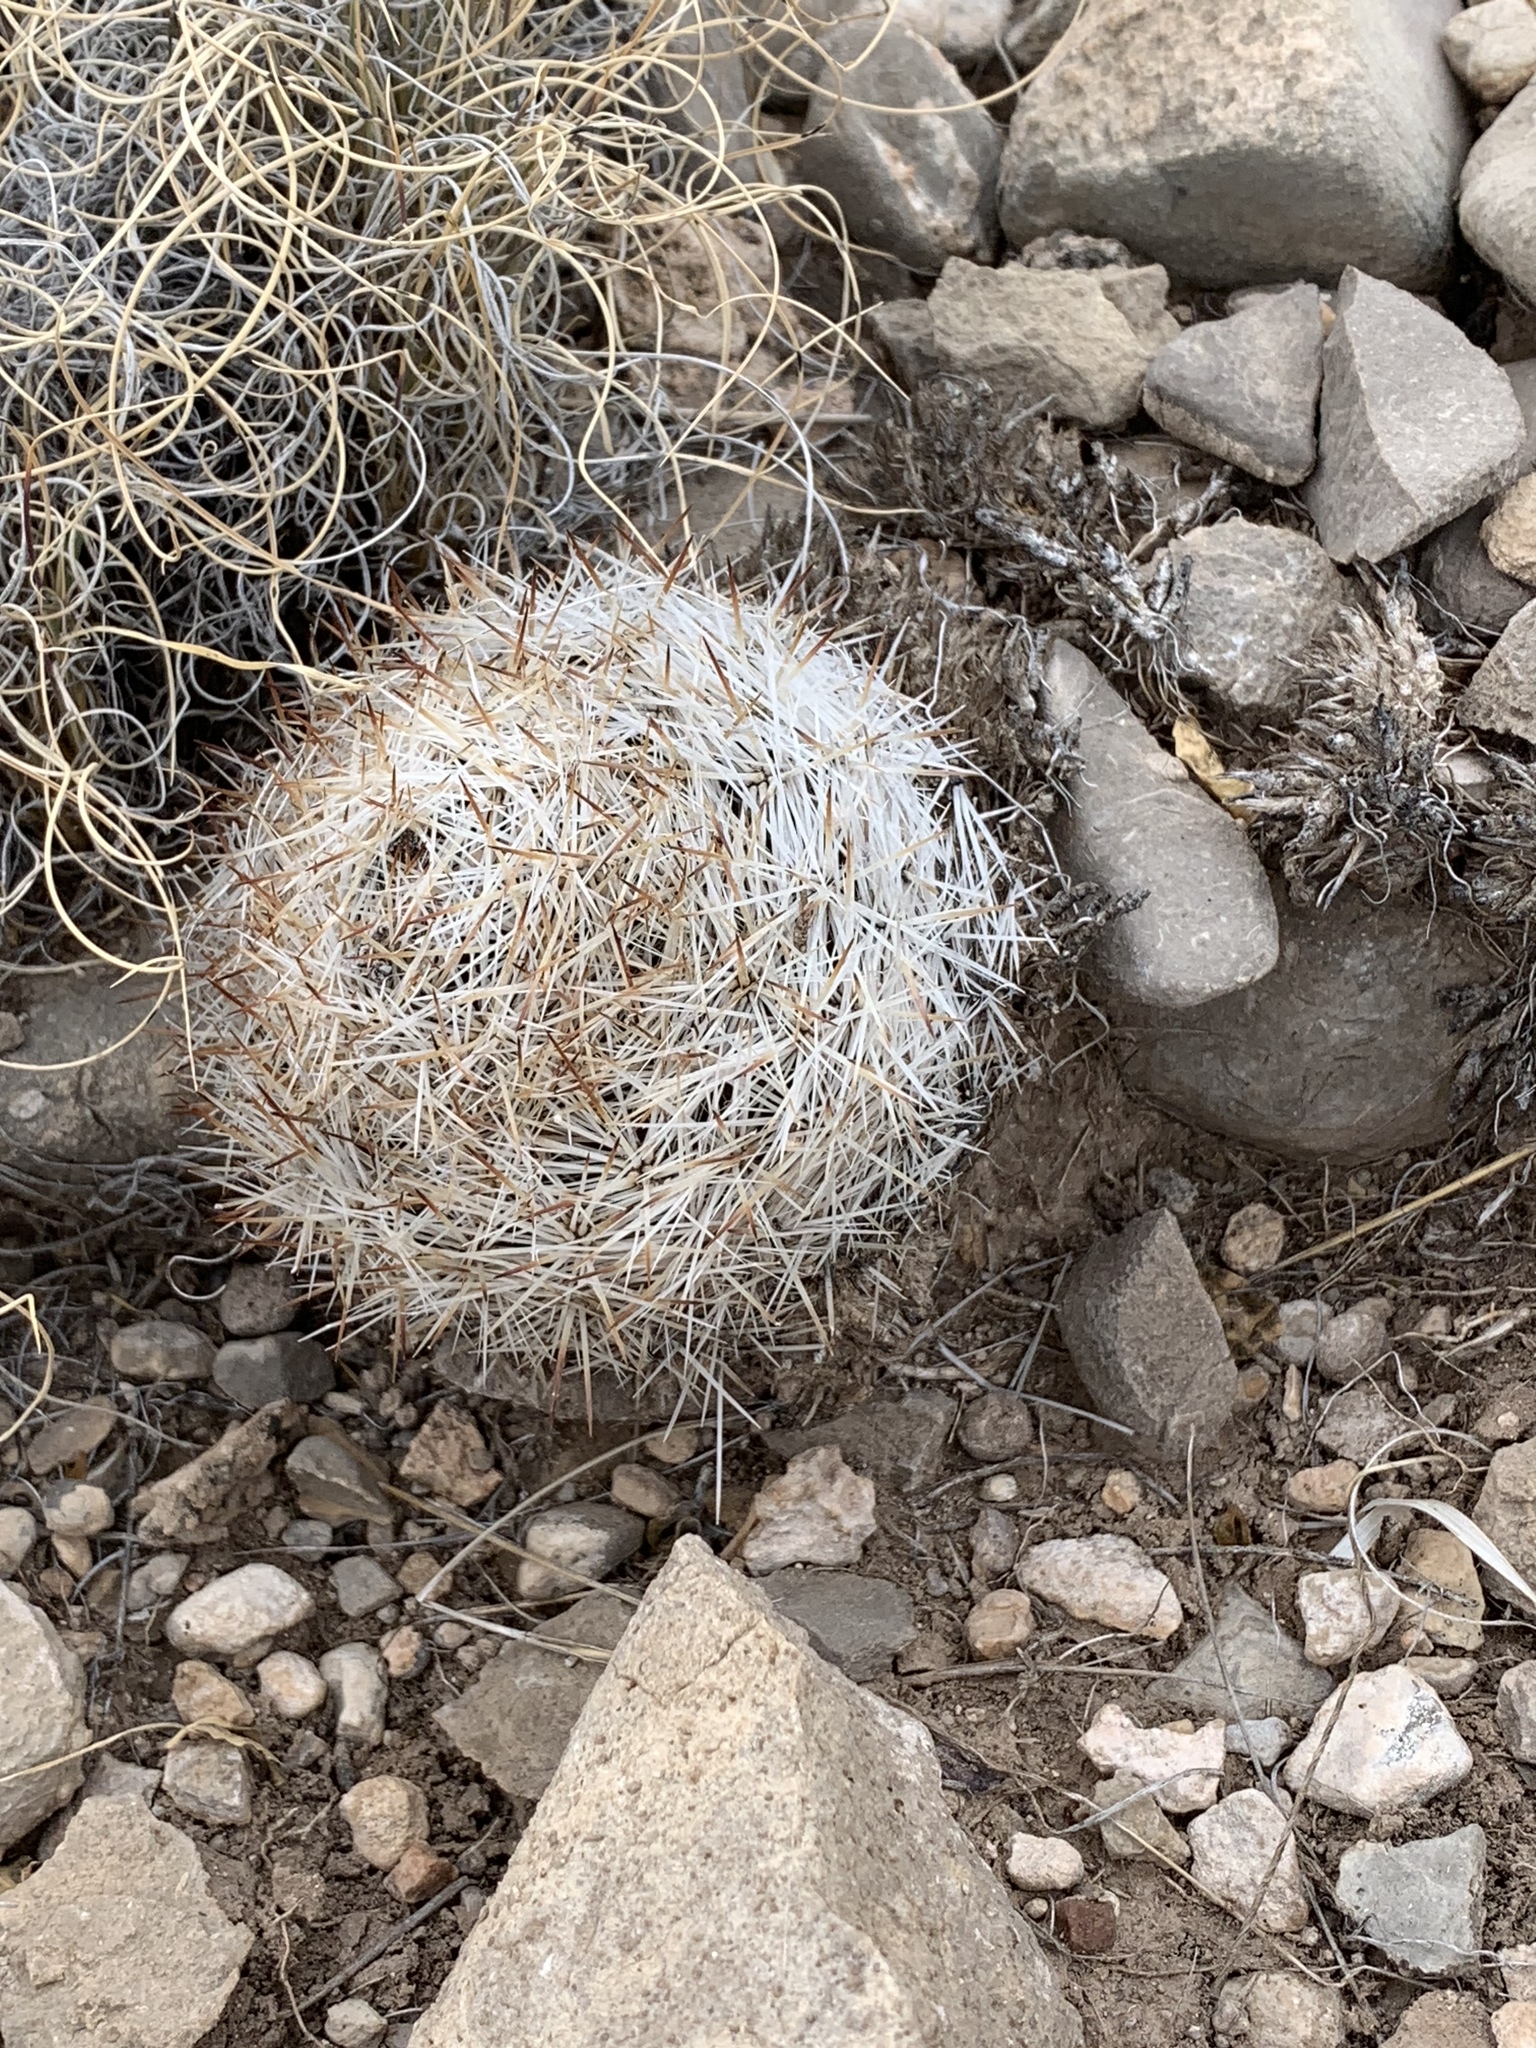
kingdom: Plantae
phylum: Tracheophyta
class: Magnoliopsida
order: Caryophyllales
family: Cactaceae
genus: Pelecyphora
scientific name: Pelecyphora vivipara
